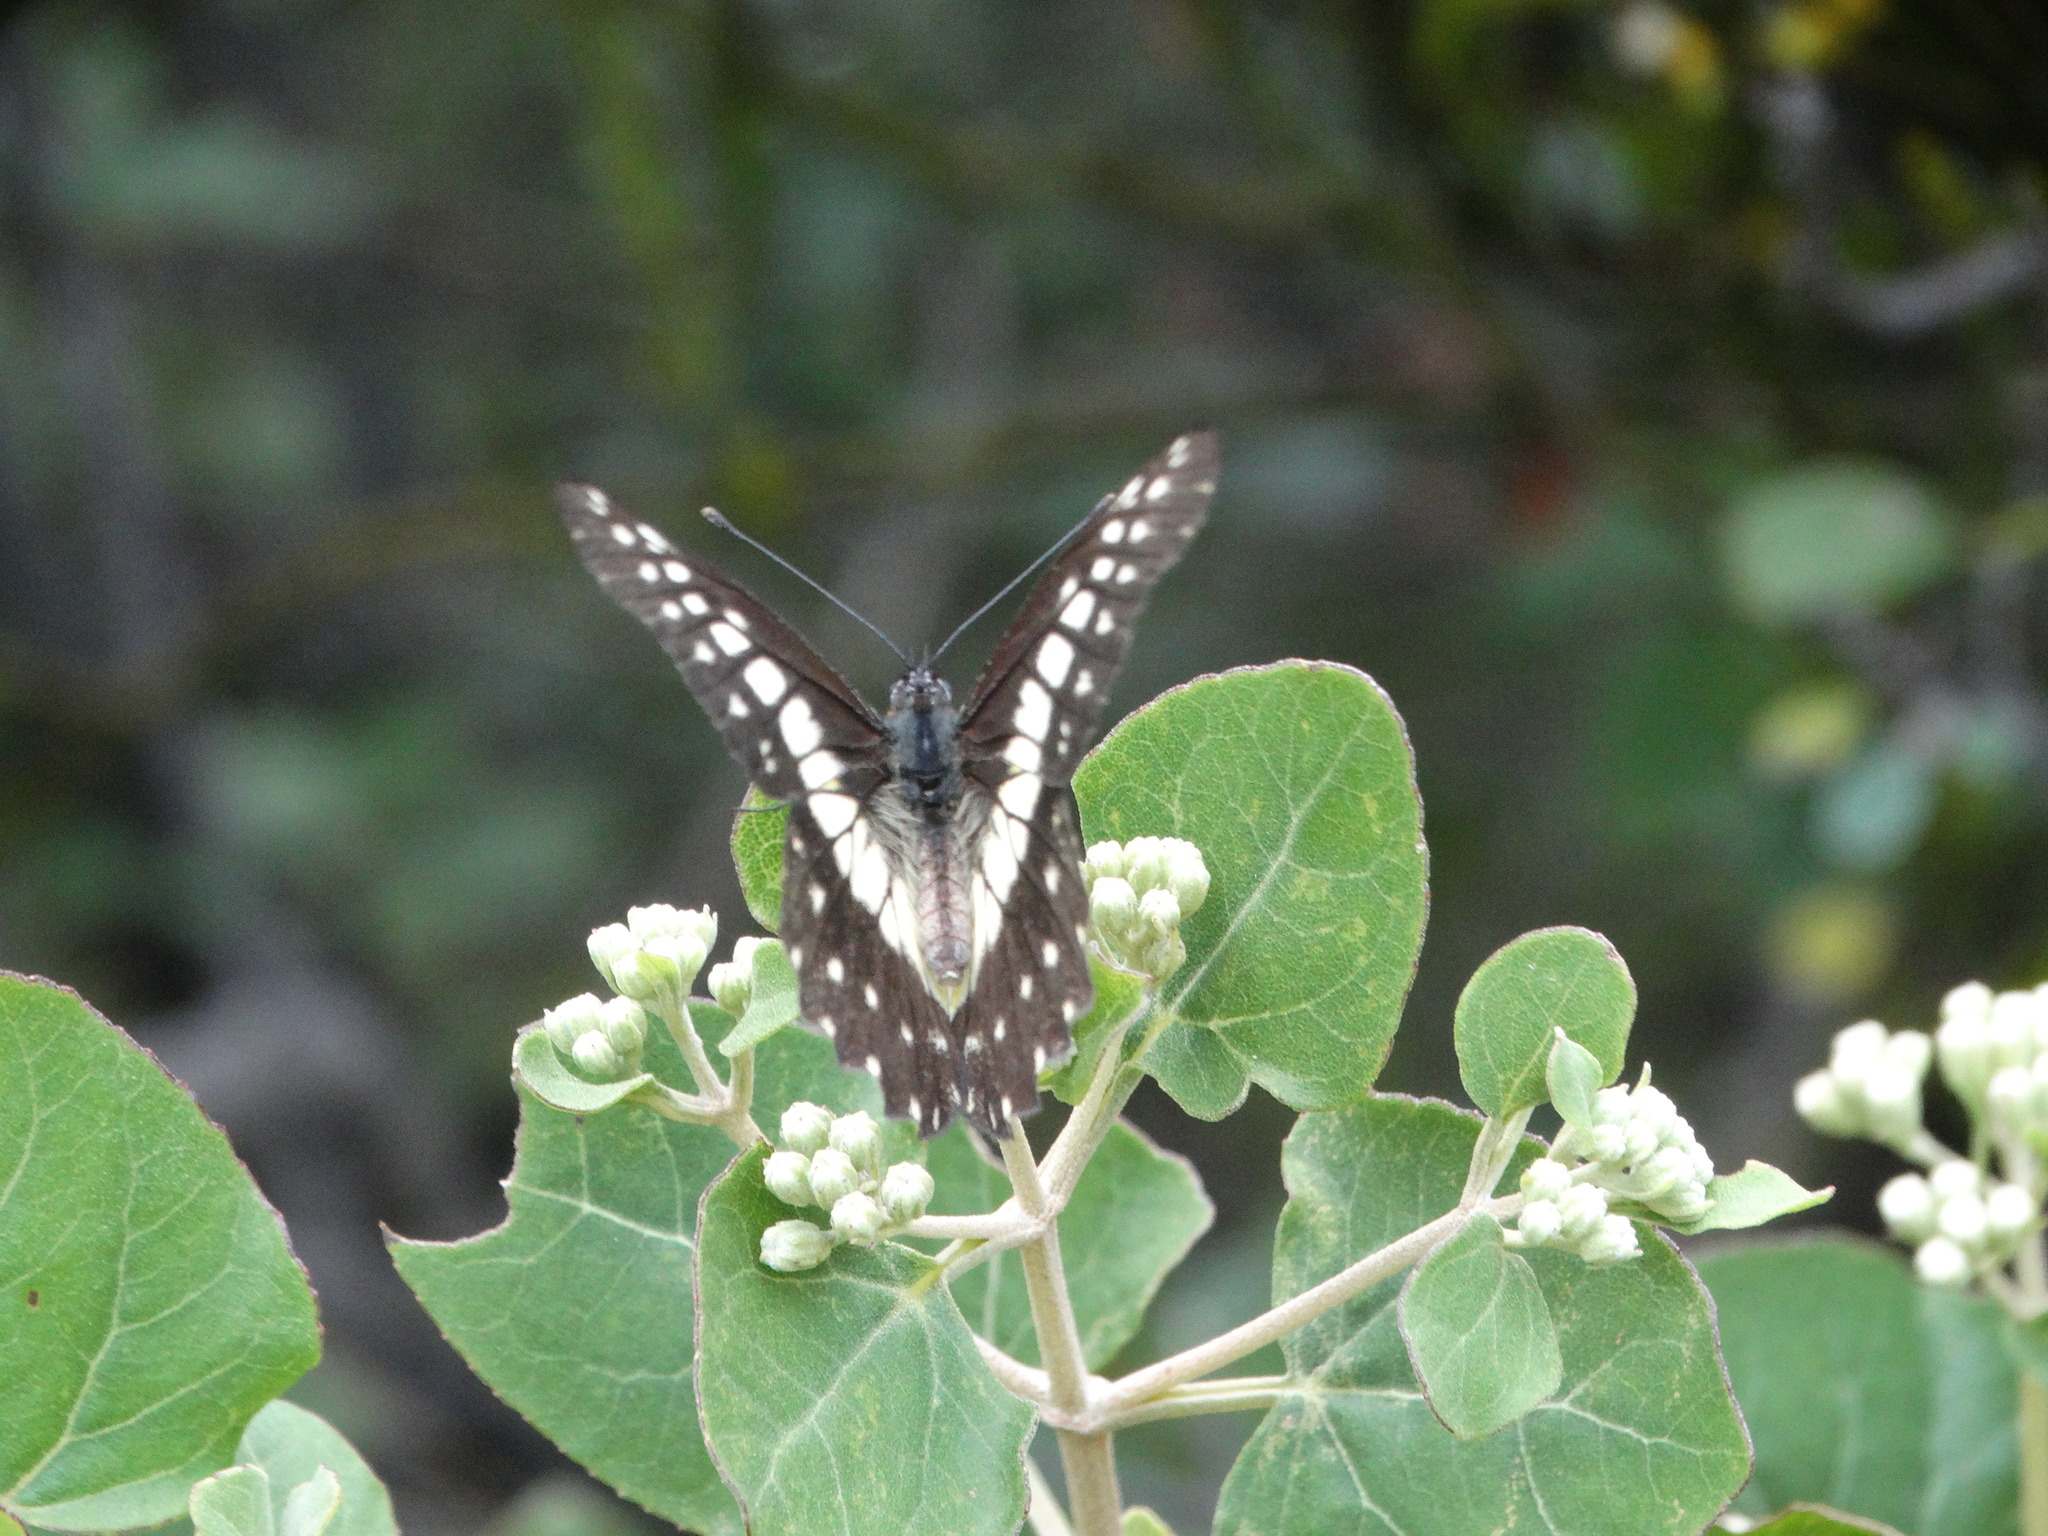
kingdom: Animalia
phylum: Arthropoda
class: Insecta
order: Lepidoptera
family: Pieridae
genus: Archonias
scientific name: Archonias nimbice
